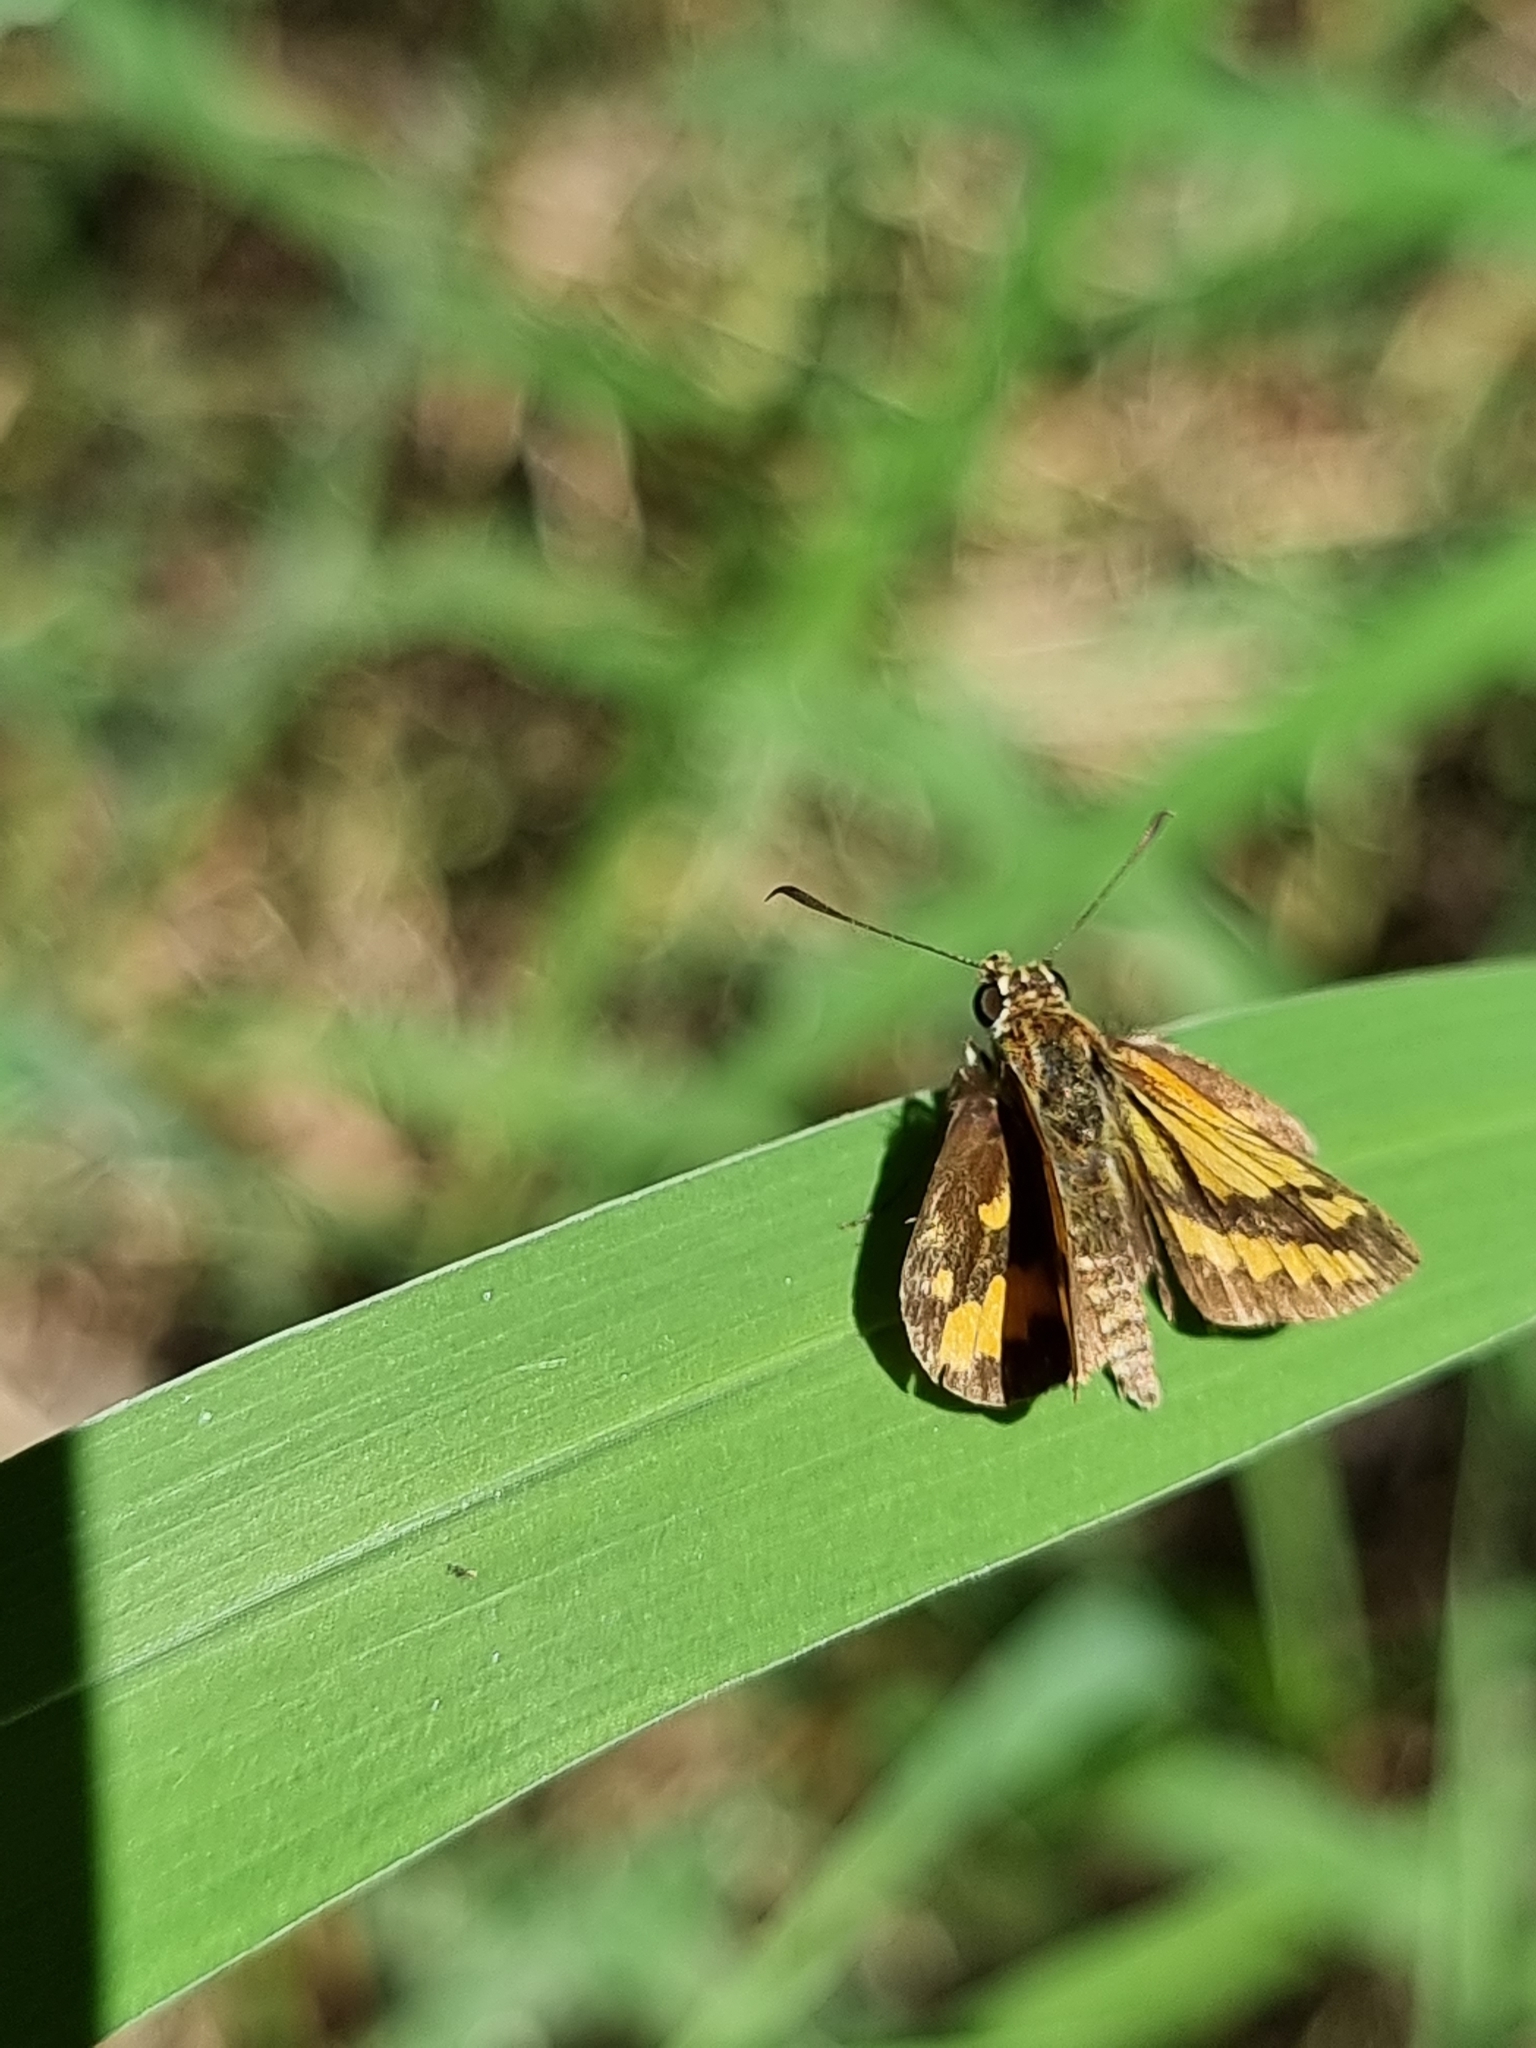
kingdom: Animalia
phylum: Arthropoda
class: Insecta
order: Lepidoptera
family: Hesperiidae
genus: Suniana
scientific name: Suniana sunias
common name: Wide-brand grass-dart
